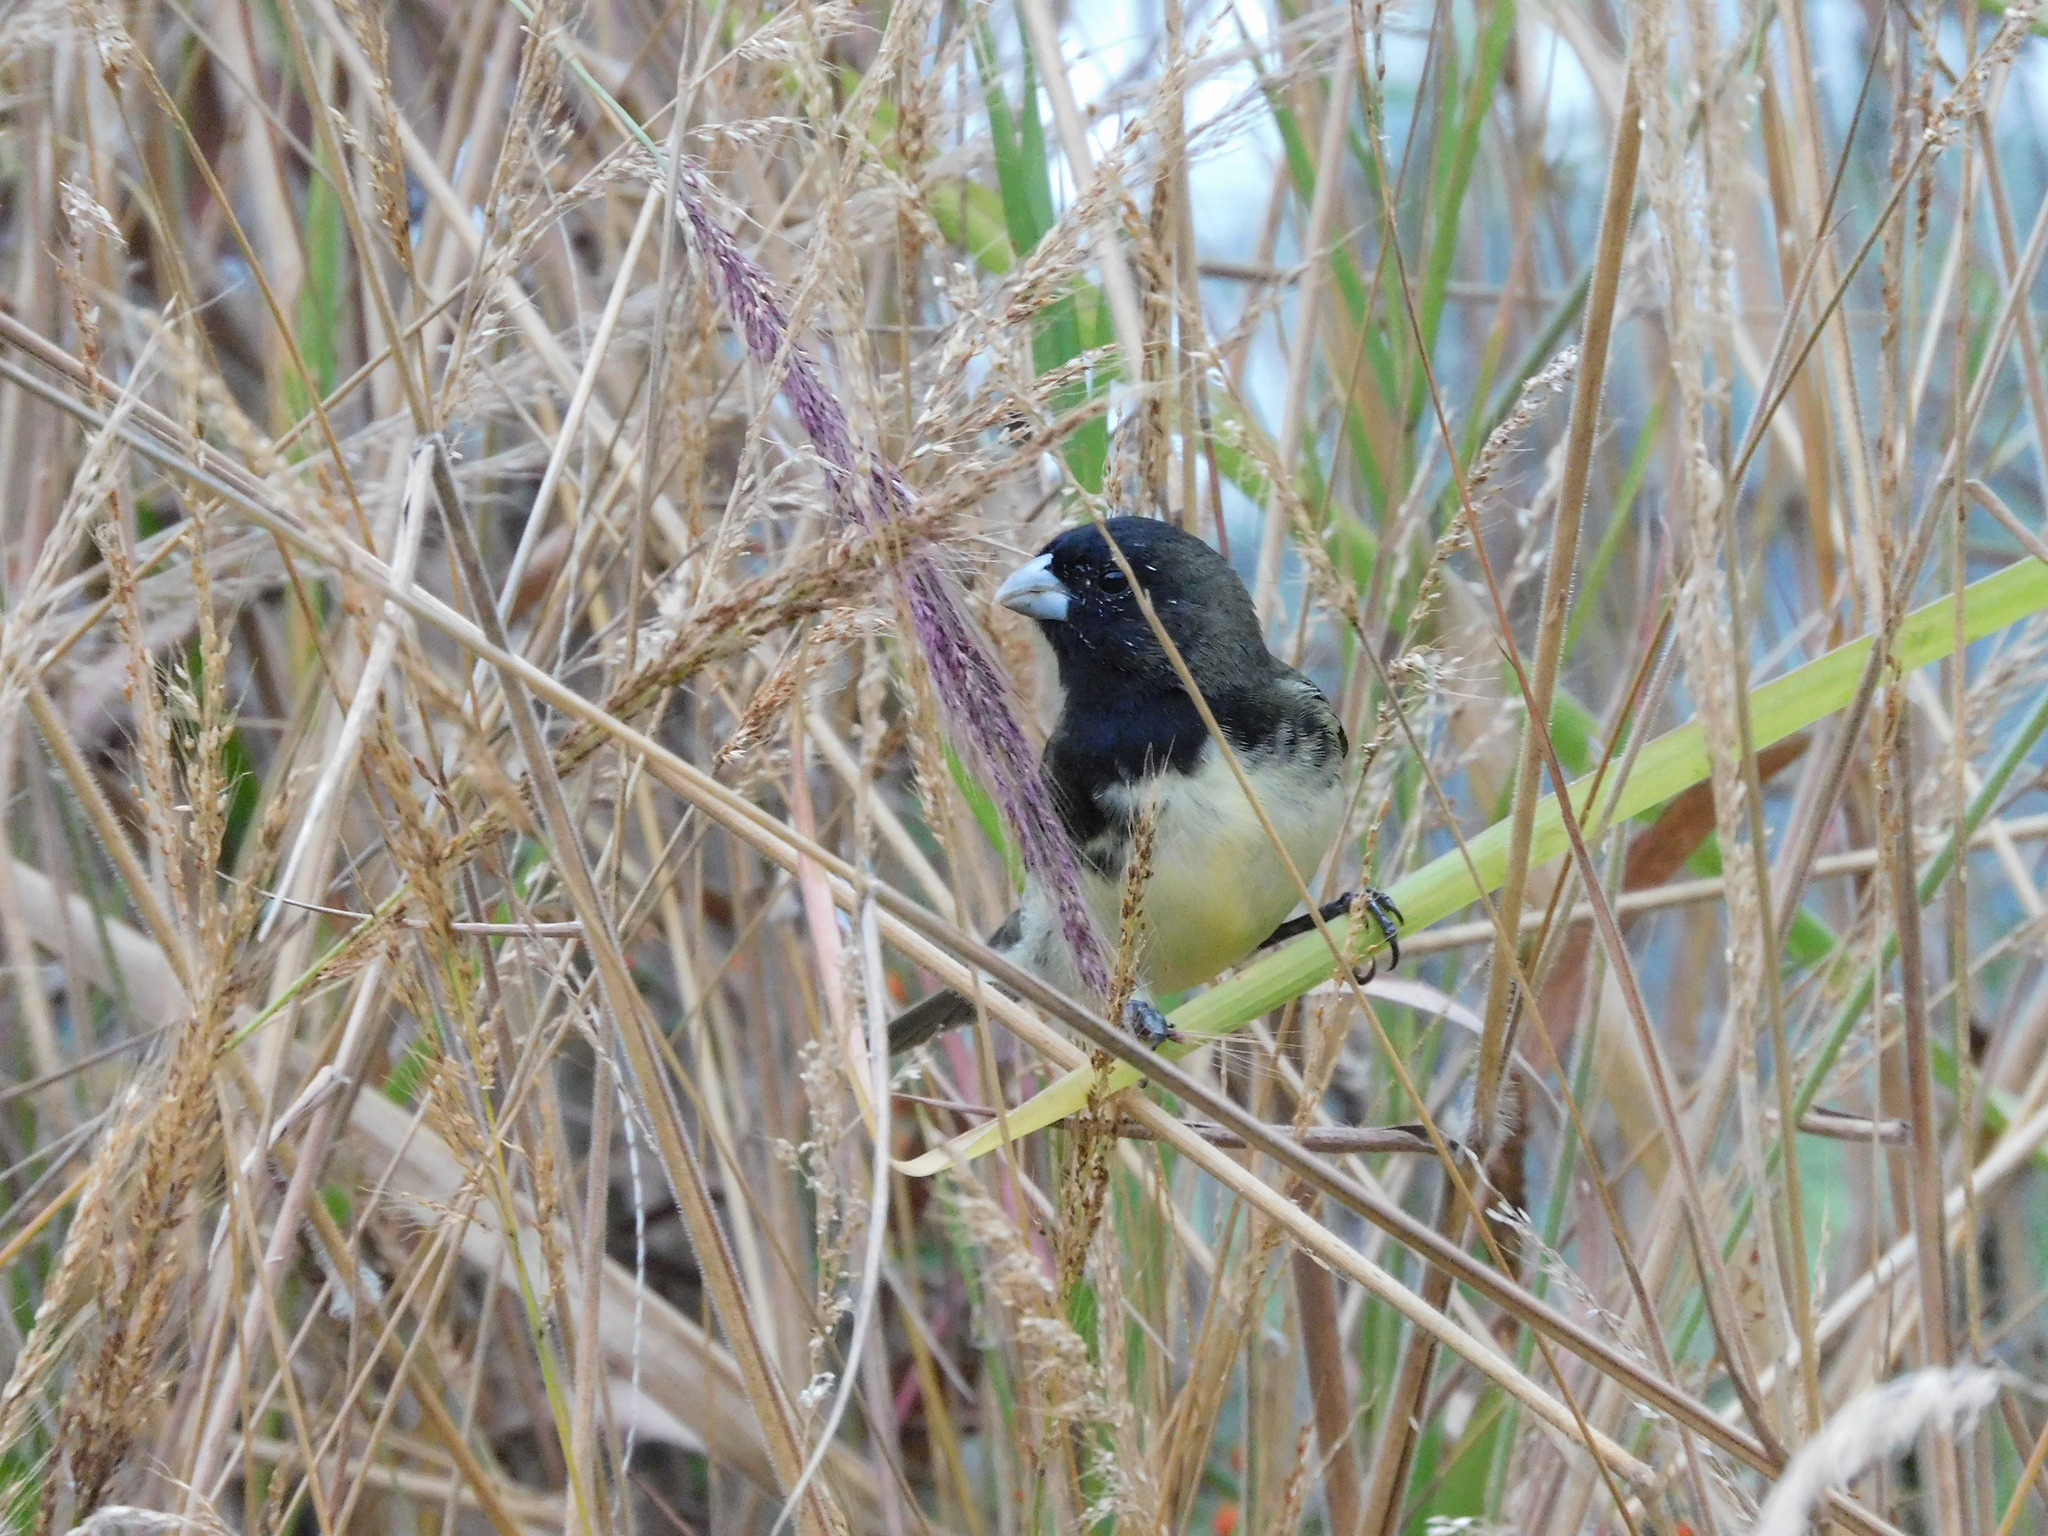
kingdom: Animalia
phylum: Chordata
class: Aves
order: Passeriformes
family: Thraupidae
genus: Sporophila
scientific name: Sporophila nigricollis
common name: Yellow-bellied seedeater
